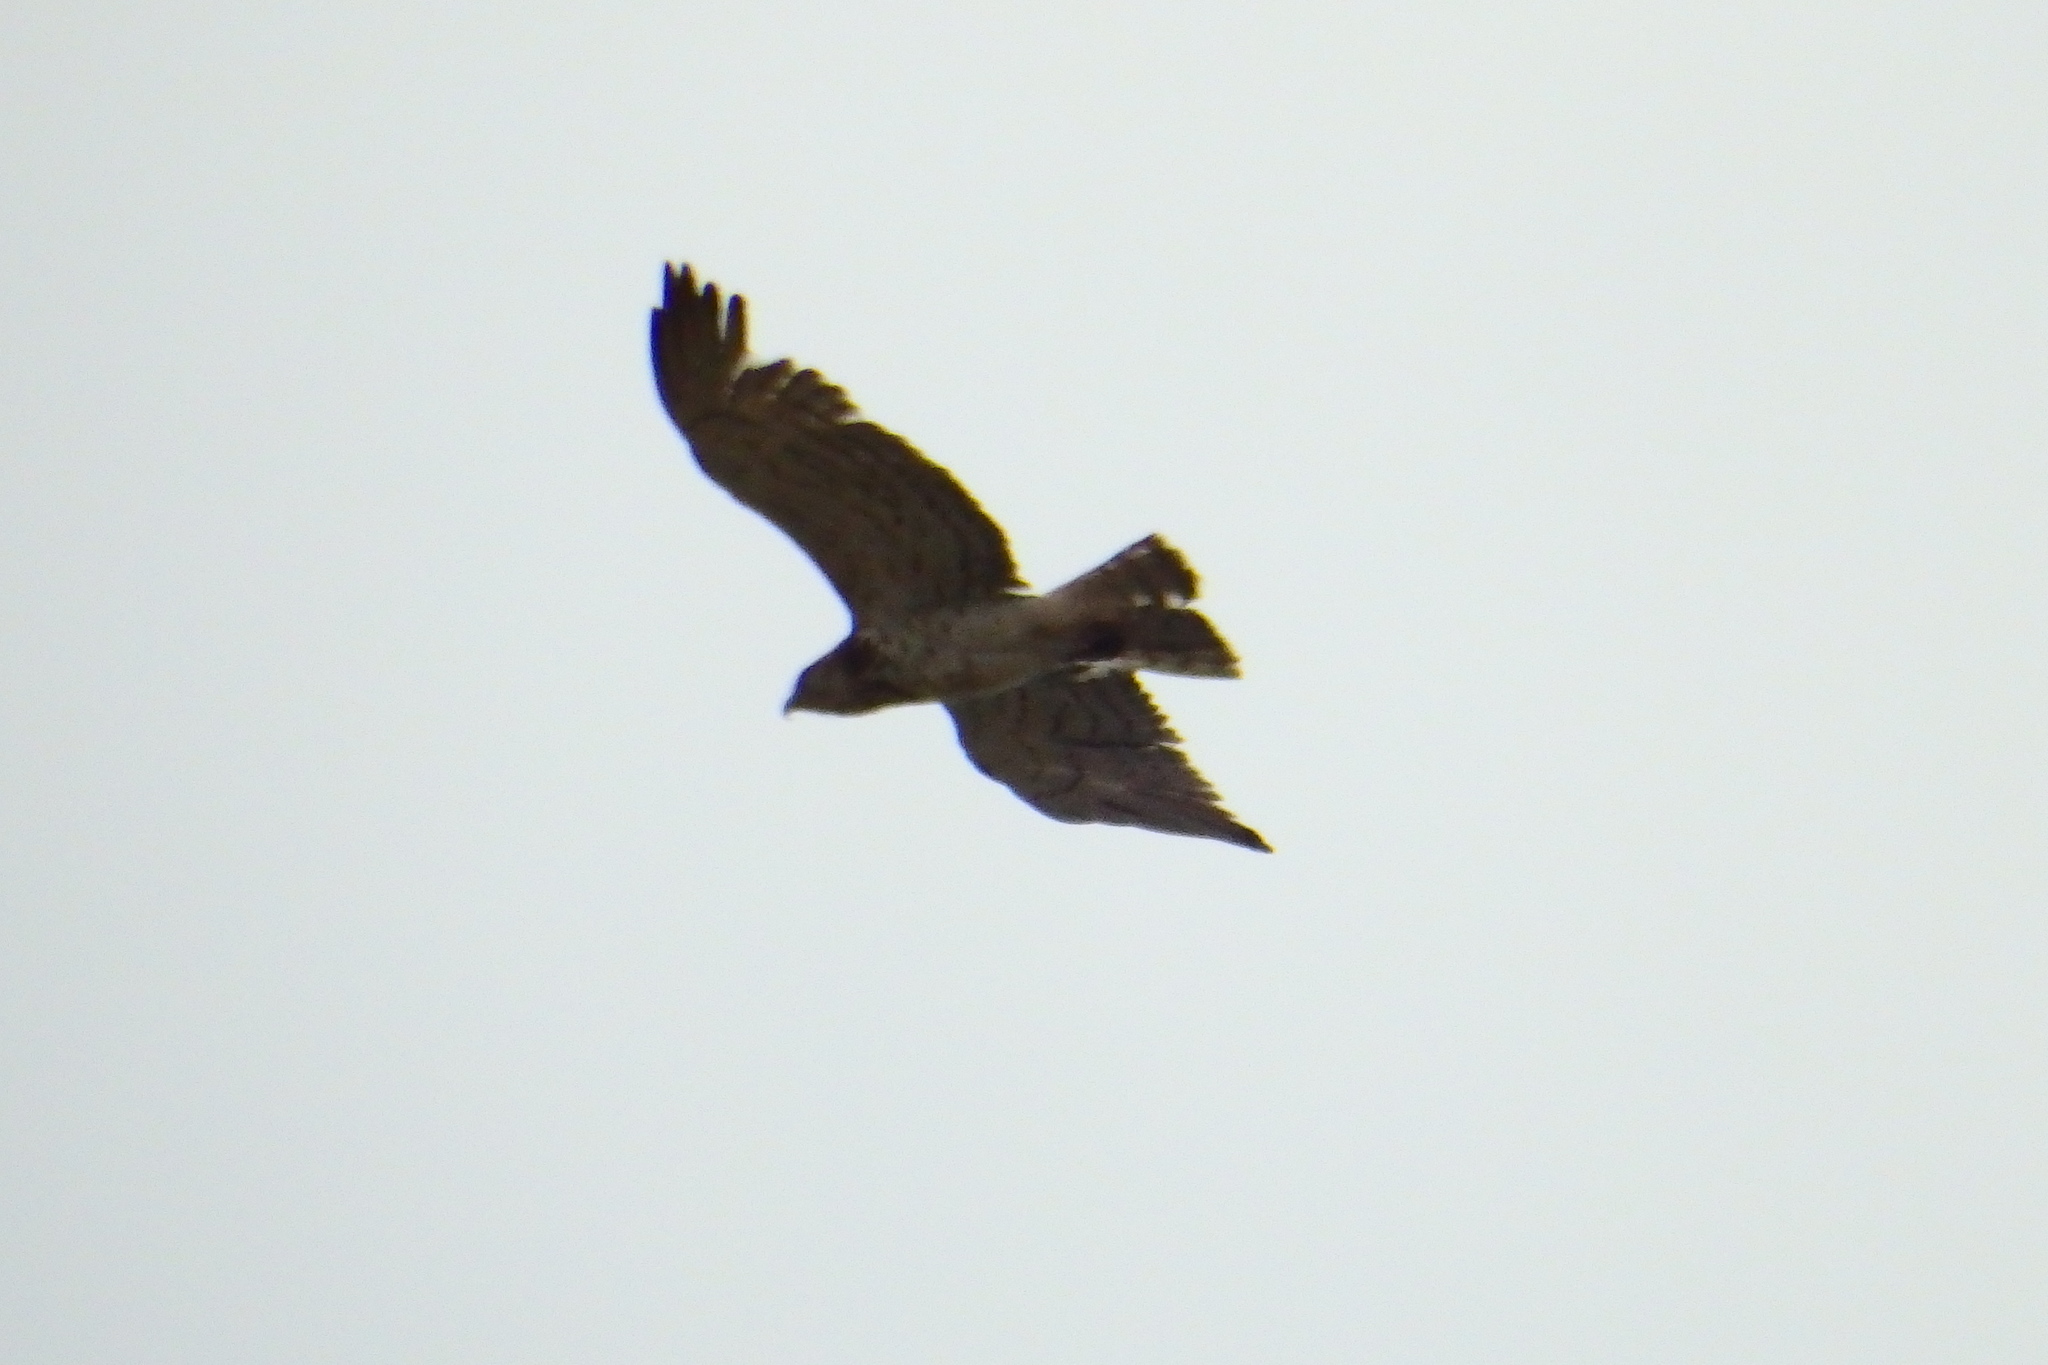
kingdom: Animalia
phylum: Chordata
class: Aves
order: Accipitriformes
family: Accipitridae
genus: Circaetus
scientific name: Circaetus gallicus
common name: Short-toed snake eagle
